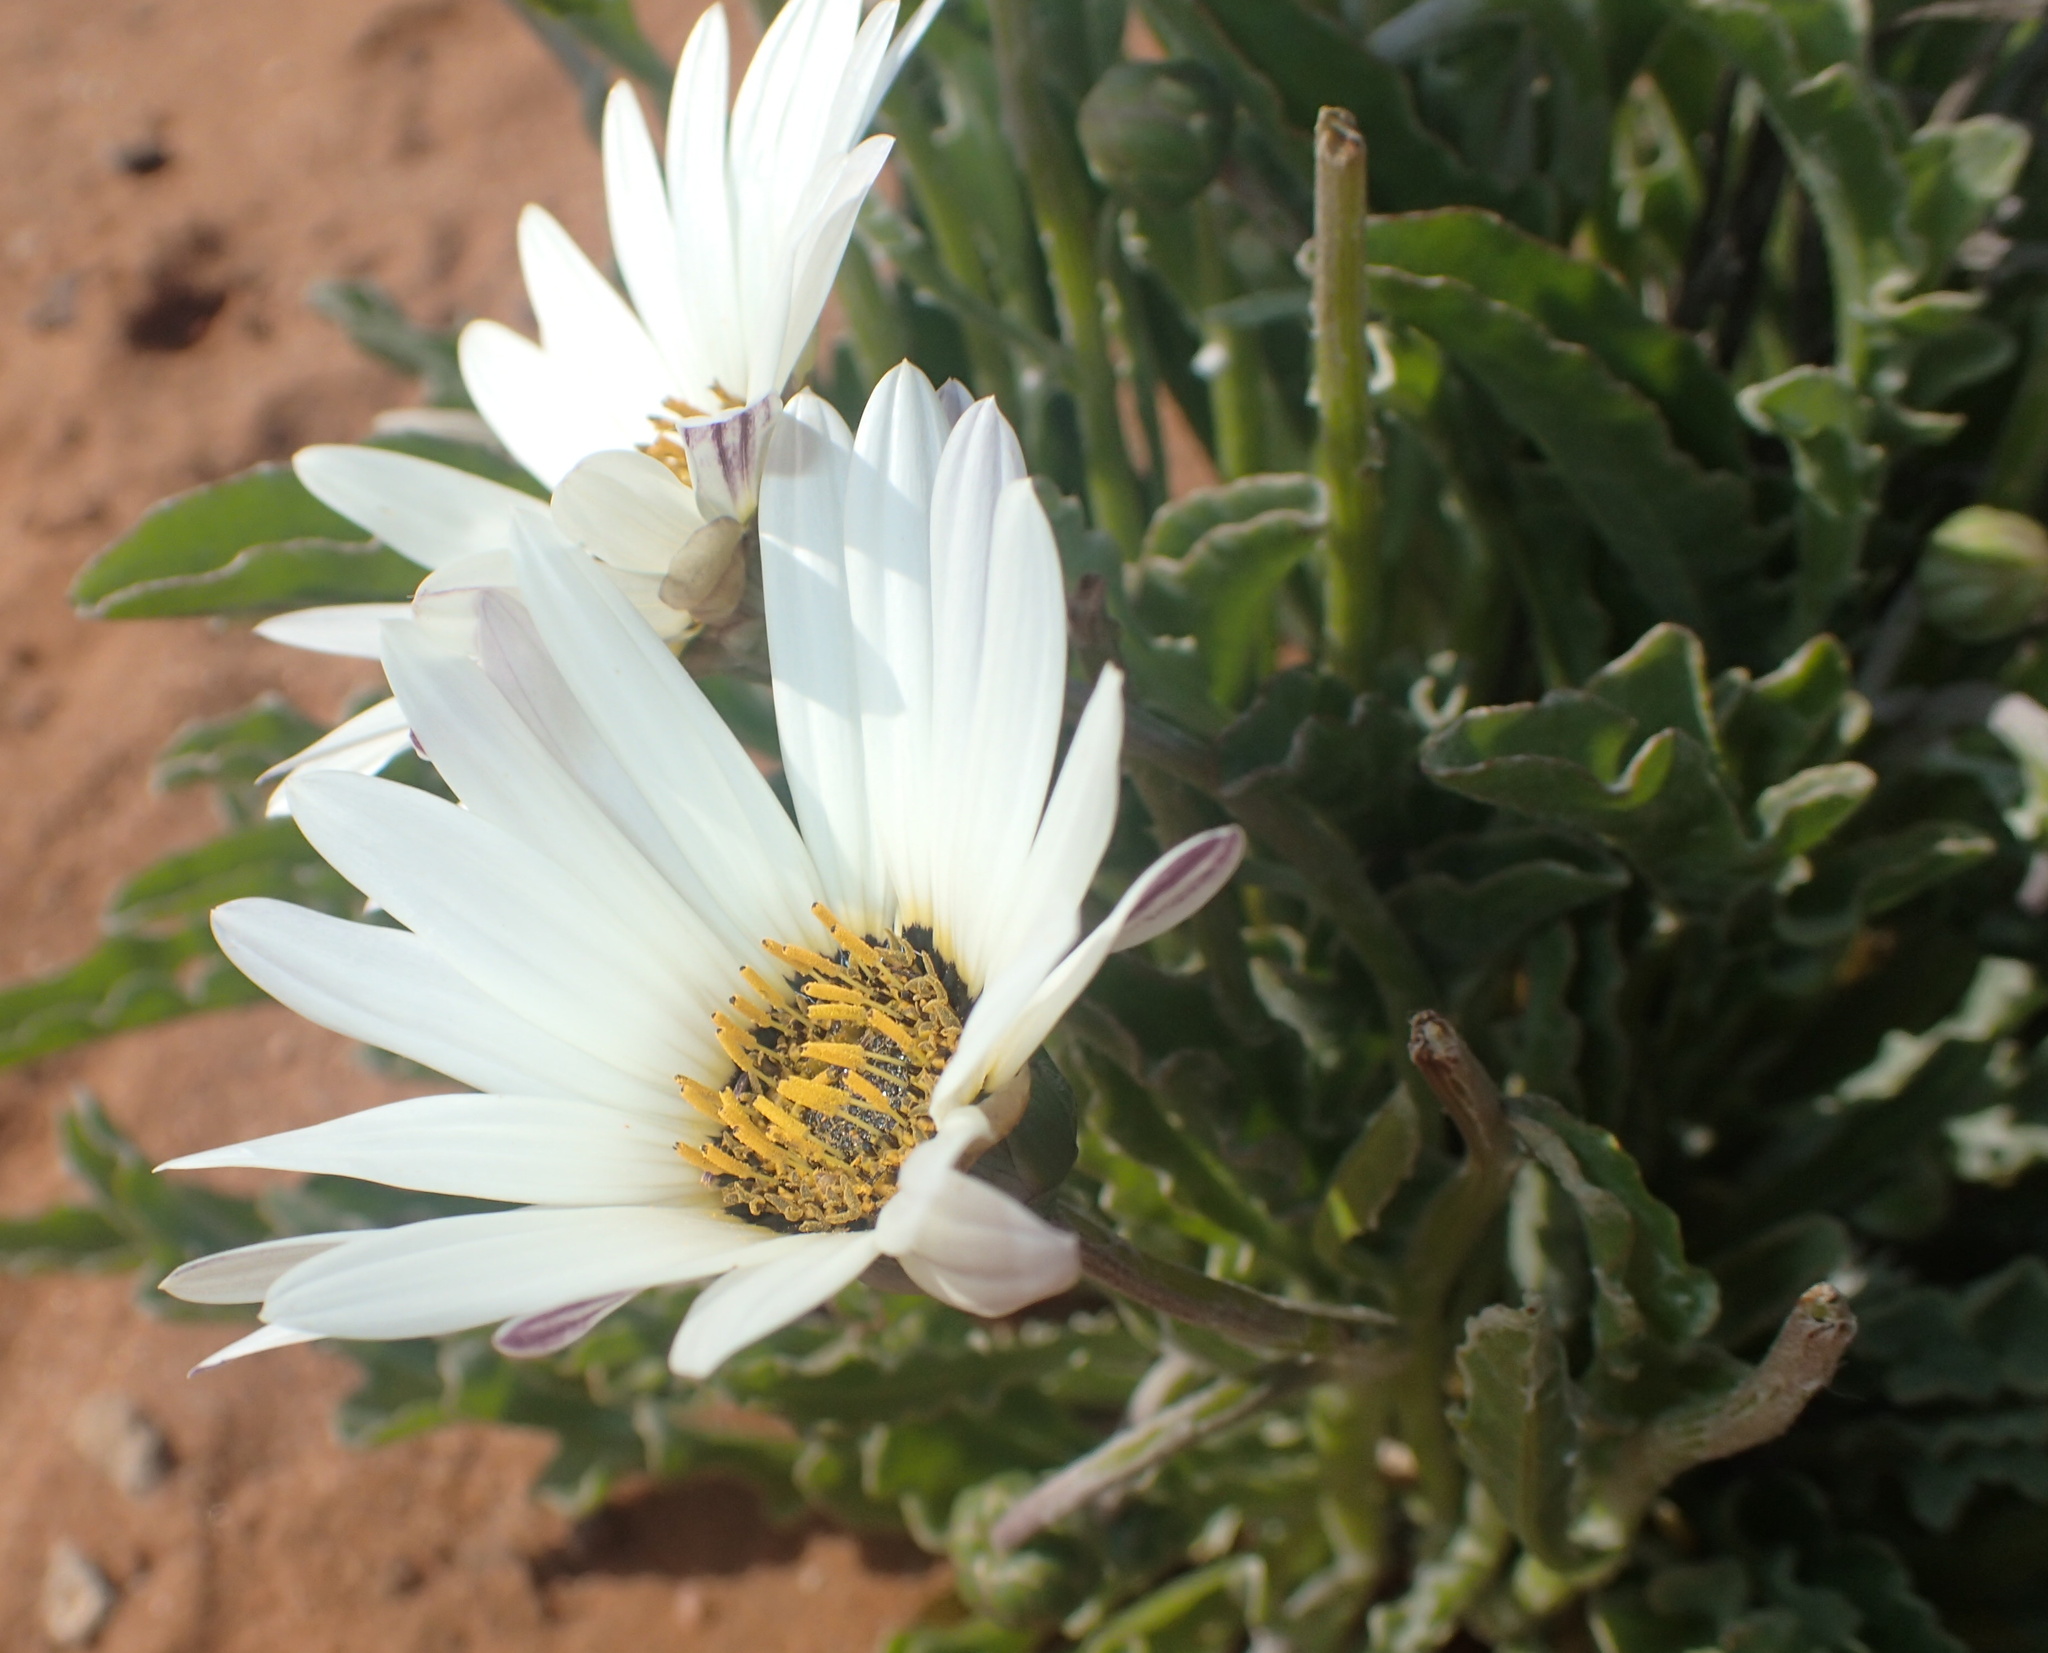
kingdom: Plantae
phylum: Tracheophyta
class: Magnoliopsida
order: Asterales
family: Asteraceae
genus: Arctotis
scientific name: Arctotis canaliculata
